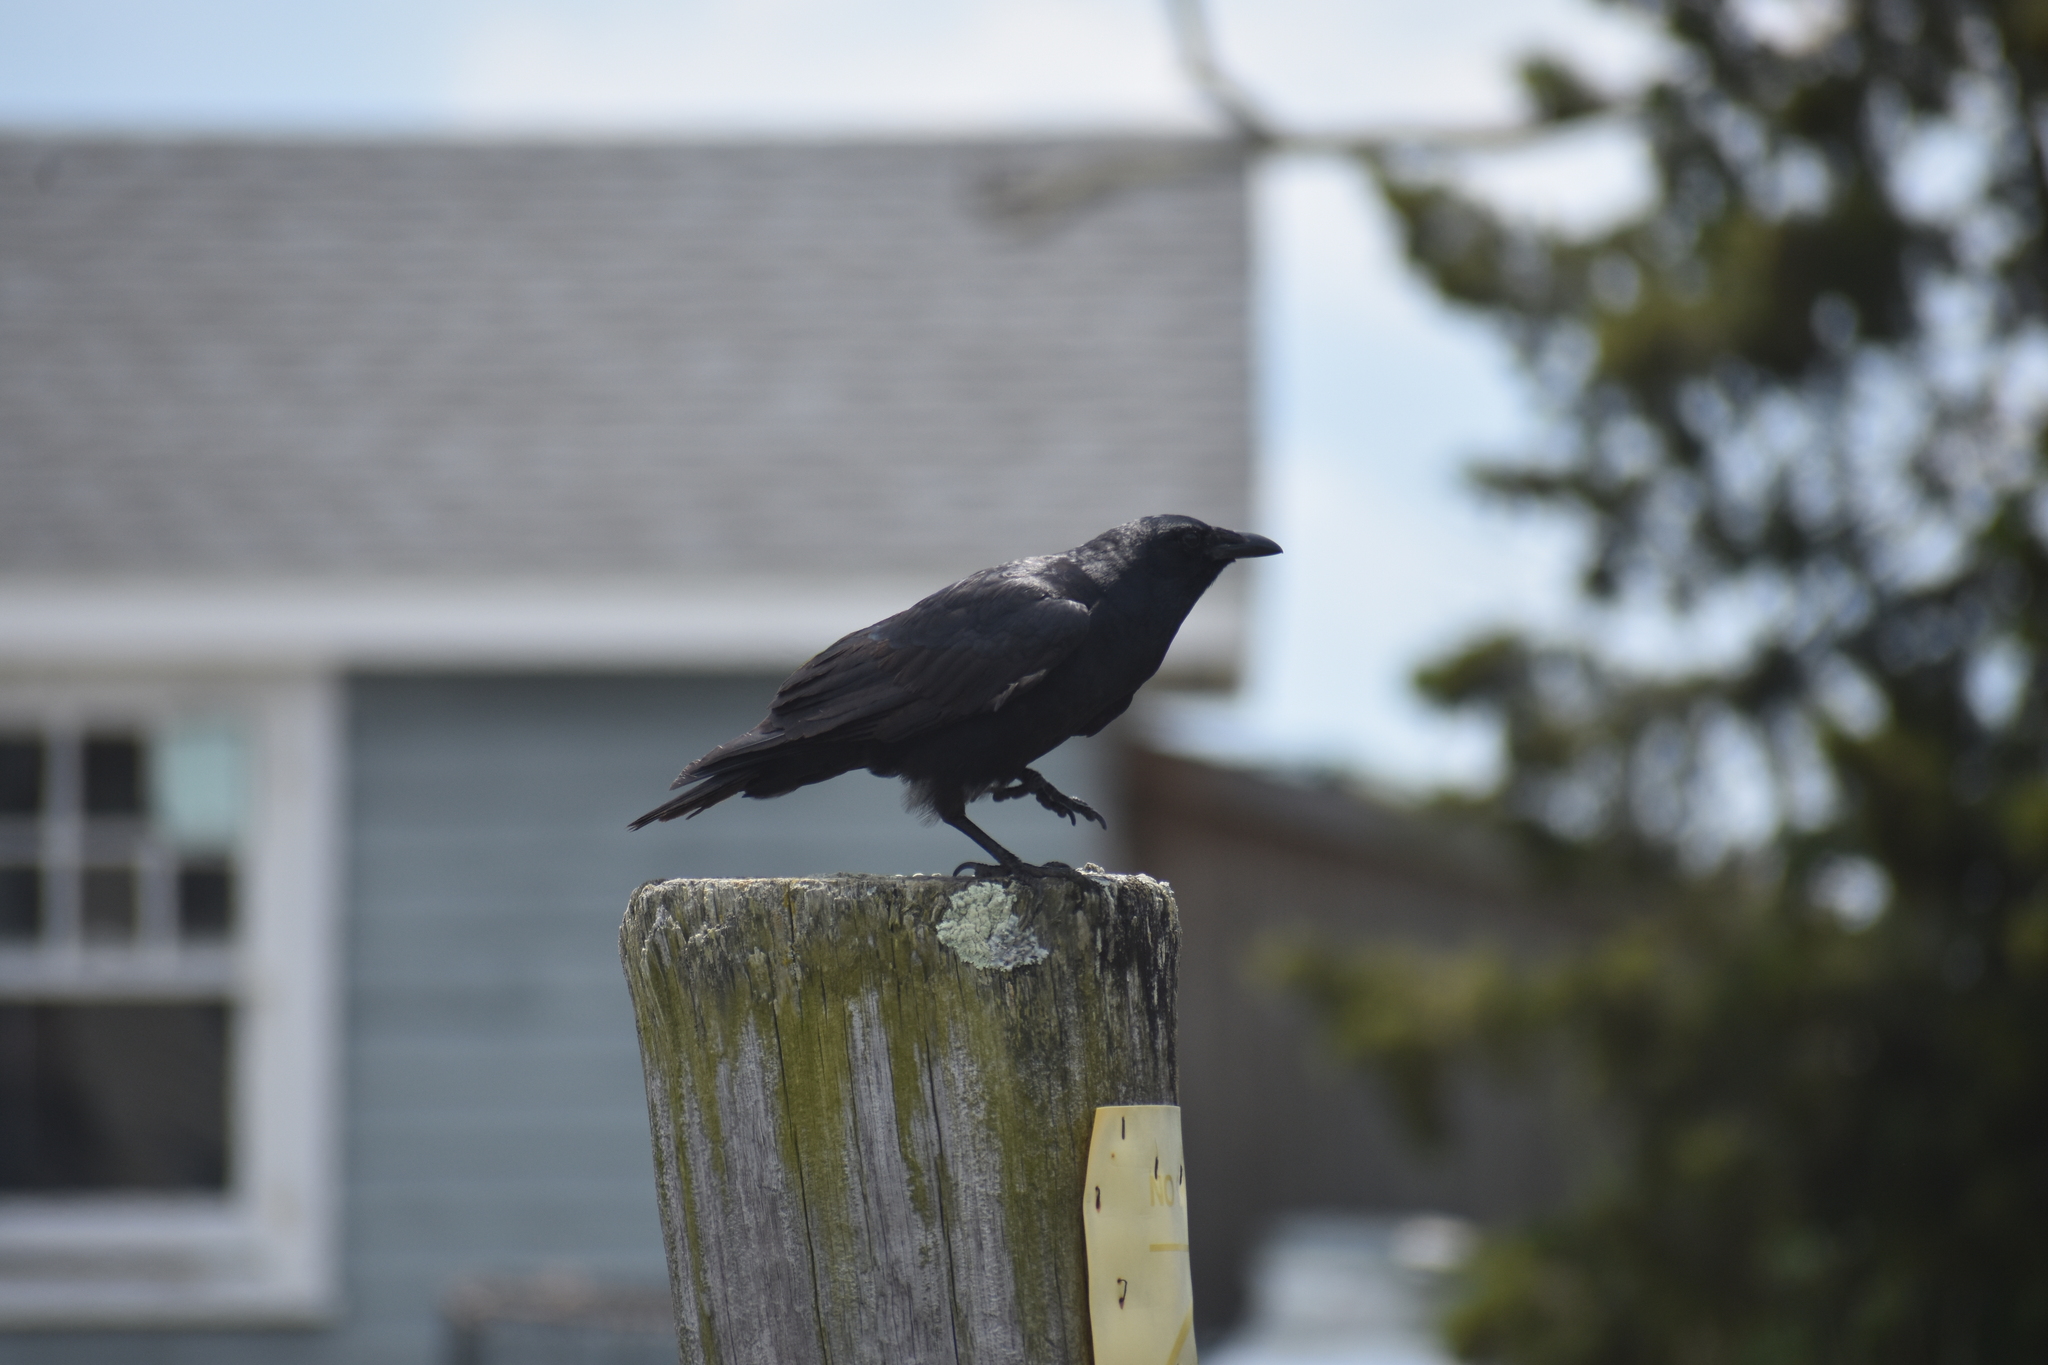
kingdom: Animalia
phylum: Chordata
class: Aves
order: Passeriformes
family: Corvidae
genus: Corvus
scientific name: Corvus ossifragus
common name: Fish crow
